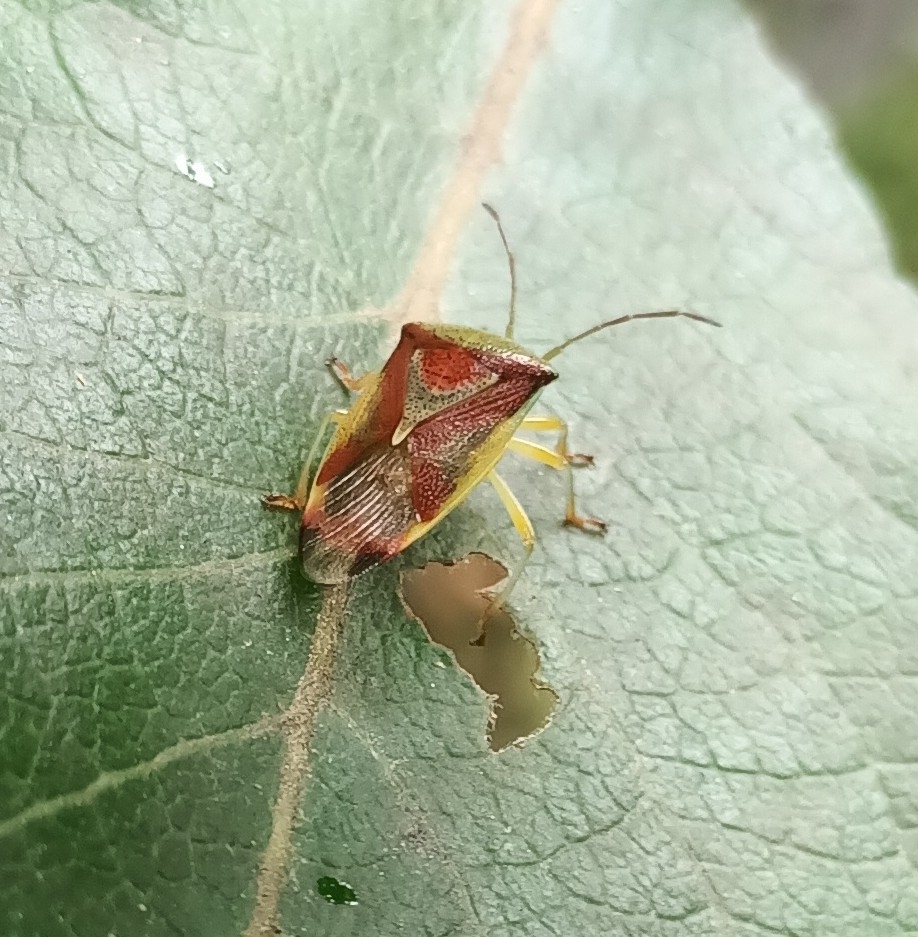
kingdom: Animalia
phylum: Arthropoda
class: Insecta
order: Hemiptera
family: Acanthosomatidae
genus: Elasmostethus
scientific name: Elasmostethus
